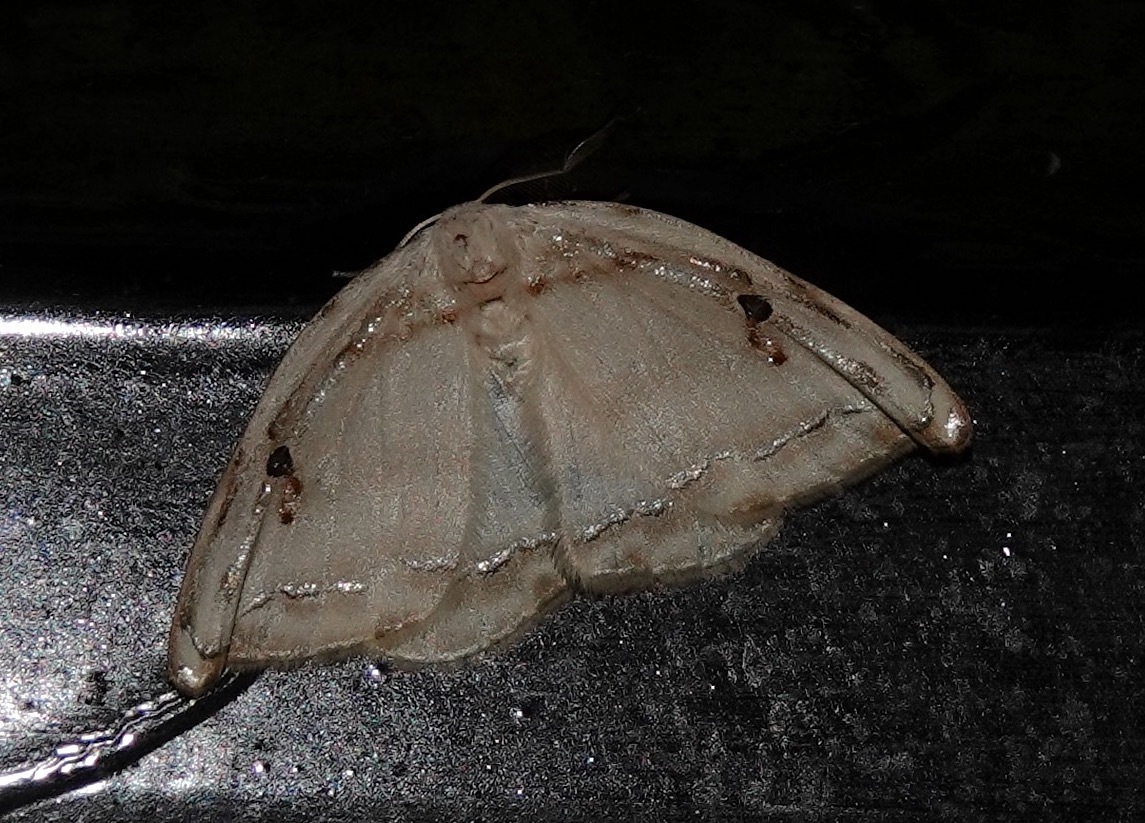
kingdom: Animalia
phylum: Arthropoda
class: Insecta
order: Lepidoptera
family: Drepanidae
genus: Callidrepana
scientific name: Callidrepana gelidata
